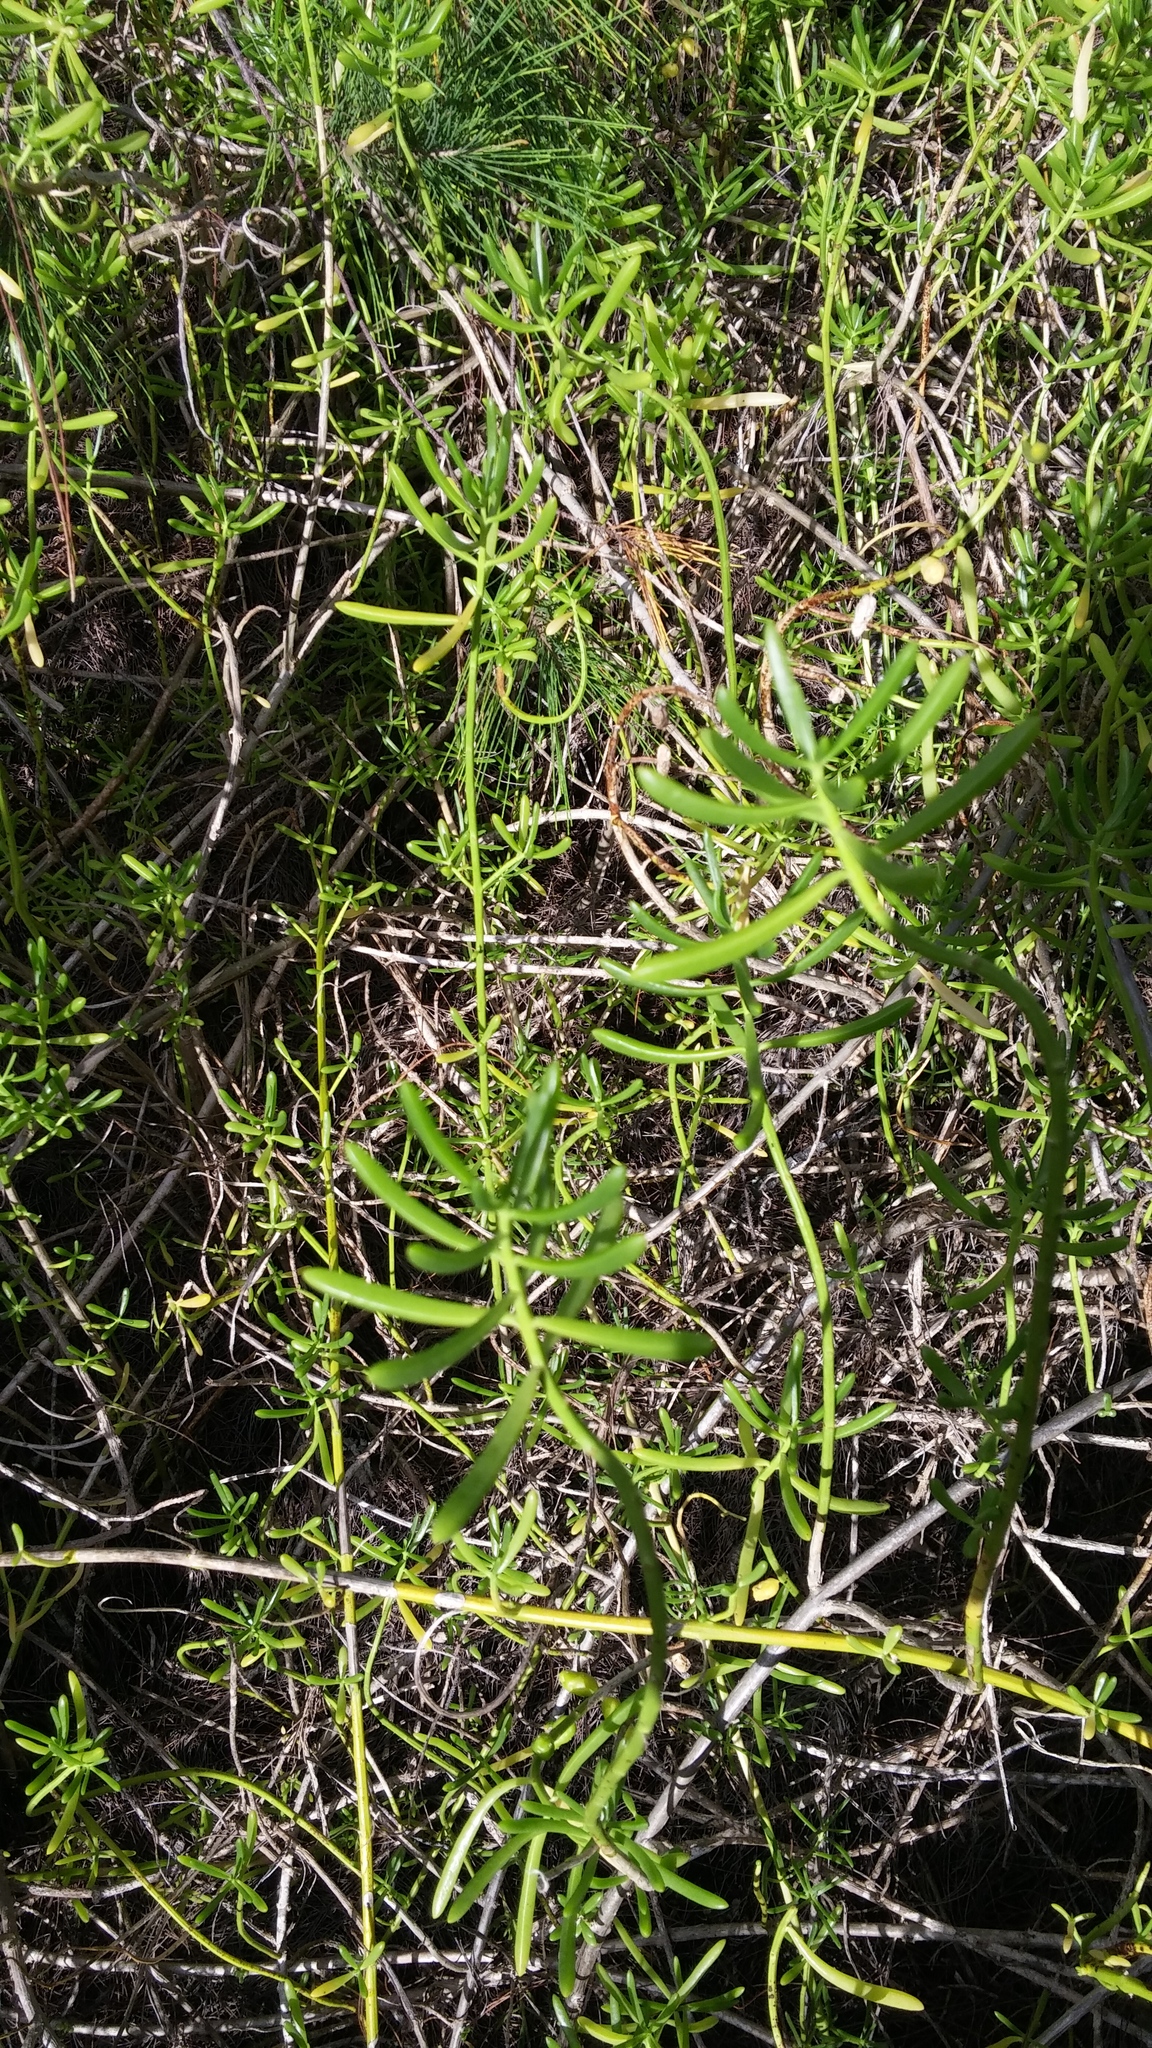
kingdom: Plantae
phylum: Tracheophyta
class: Magnoliopsida
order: Brassicales
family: Bataceae
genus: Batis
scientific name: Batis maritima
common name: Turtleweed
